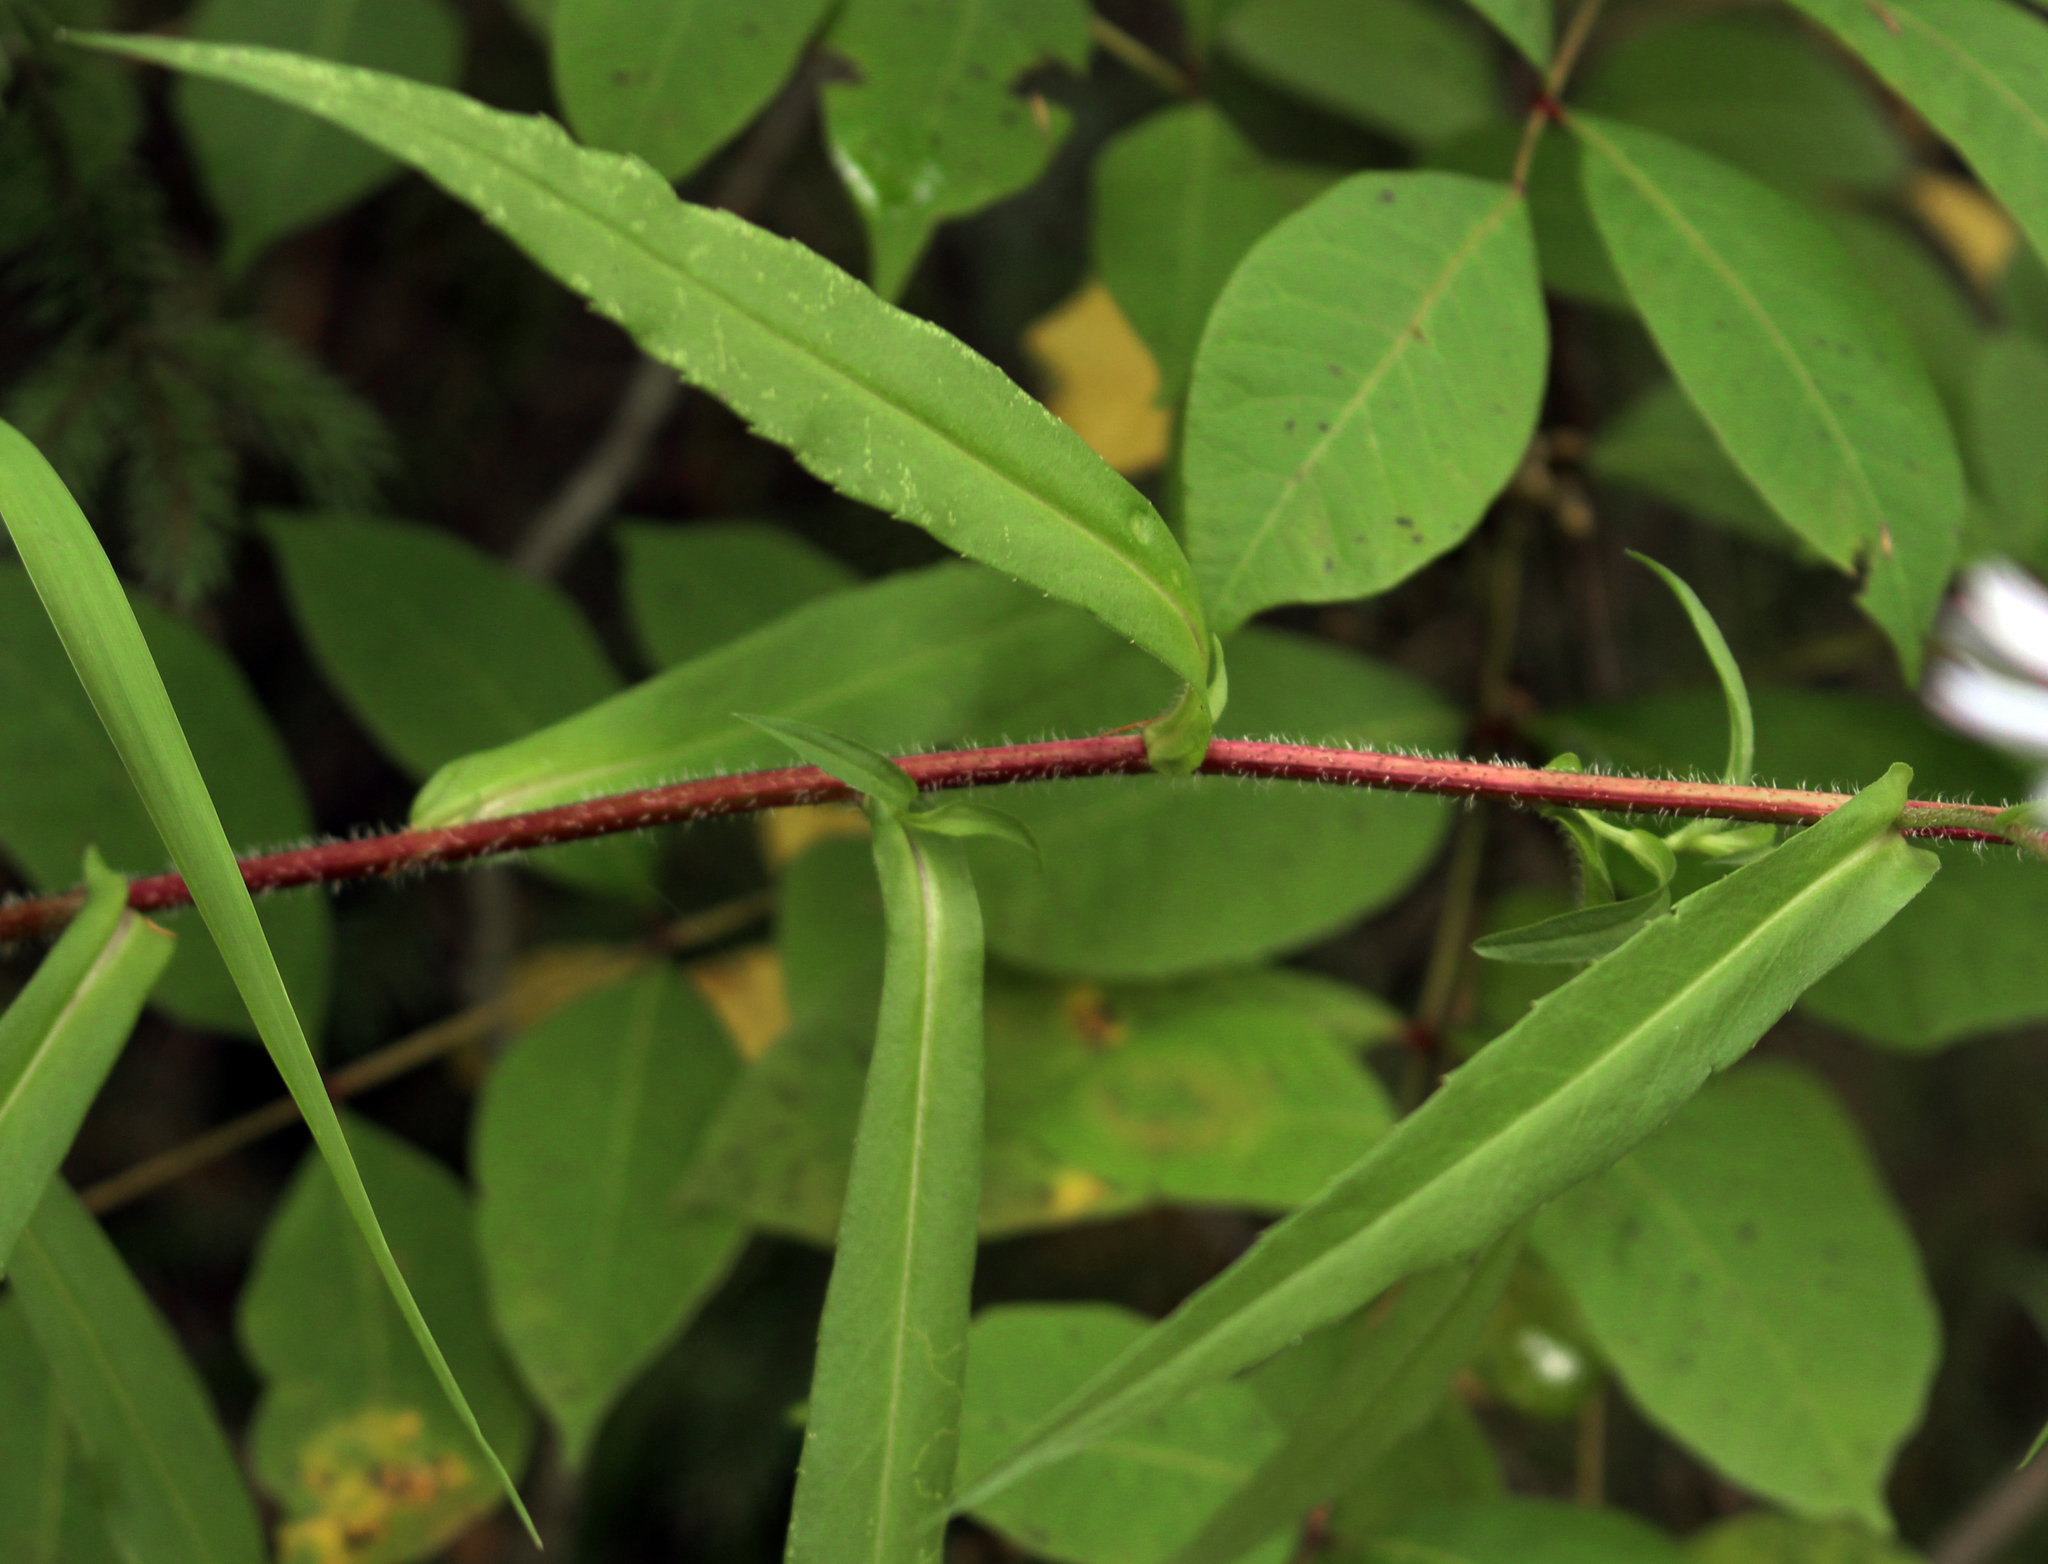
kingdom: Plantae
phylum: Tracheophyta
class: Magnoliopsida
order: Asterales
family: Asteraceae
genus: Symphyotrichum
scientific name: Symphyotrichum puniceum
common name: Bog aster
